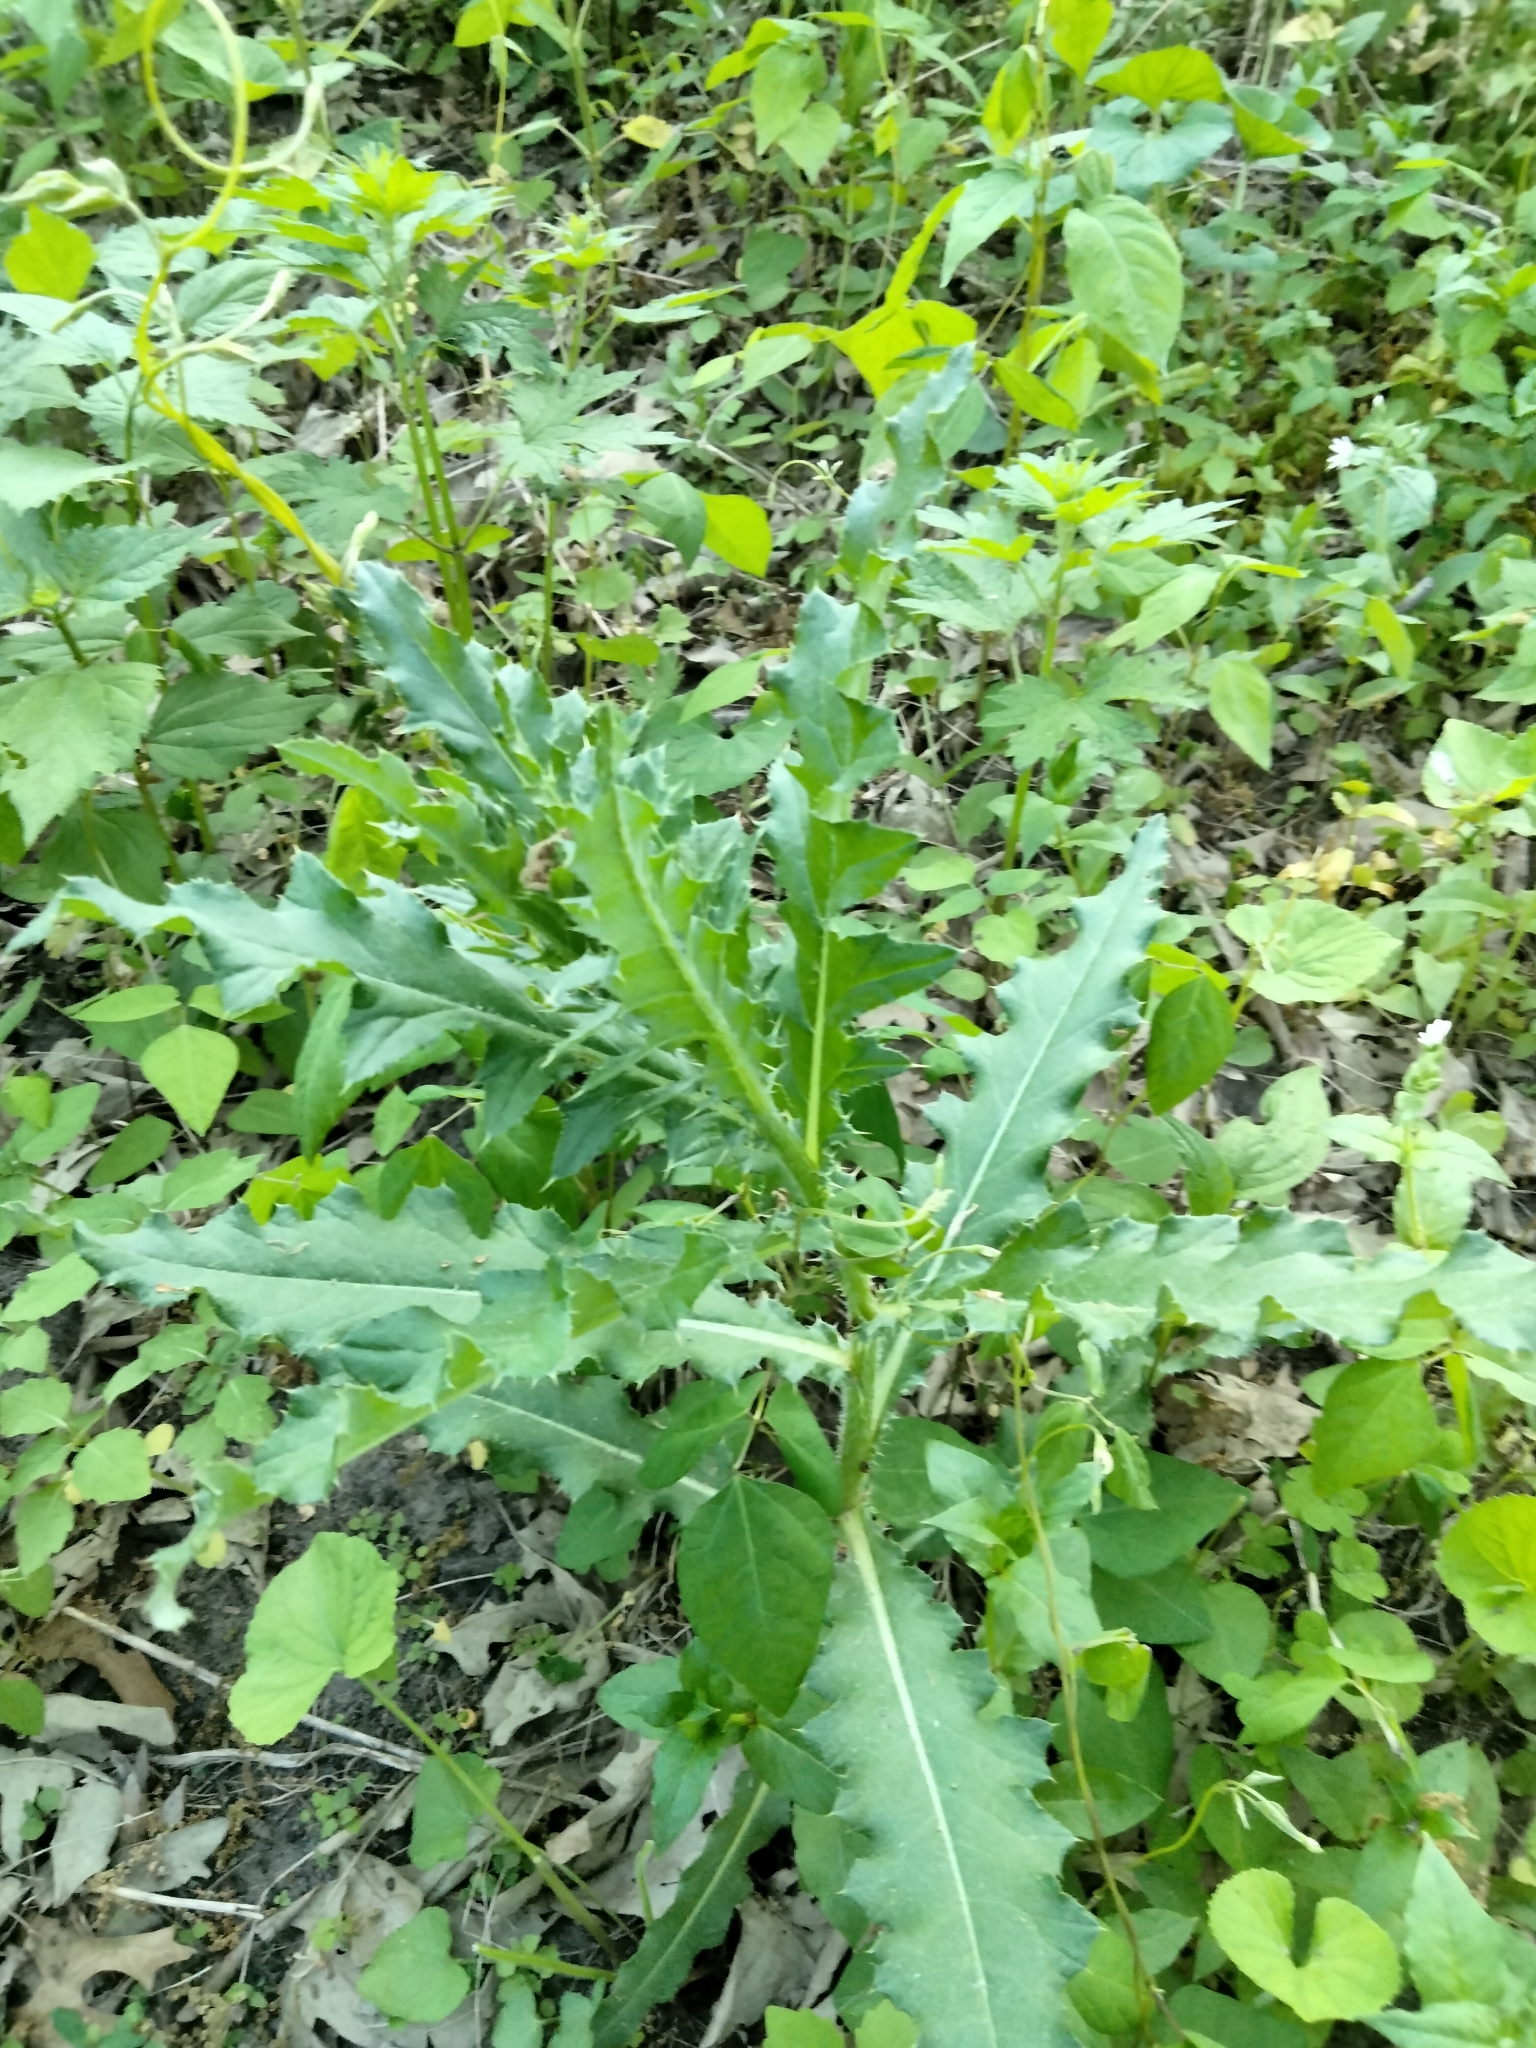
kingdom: Plantae
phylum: Tracheophyta
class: Magnoliopsida
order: Asterales
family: Asteraceae
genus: Cirsium
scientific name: Cirsium arvense
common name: Creeping thistle
